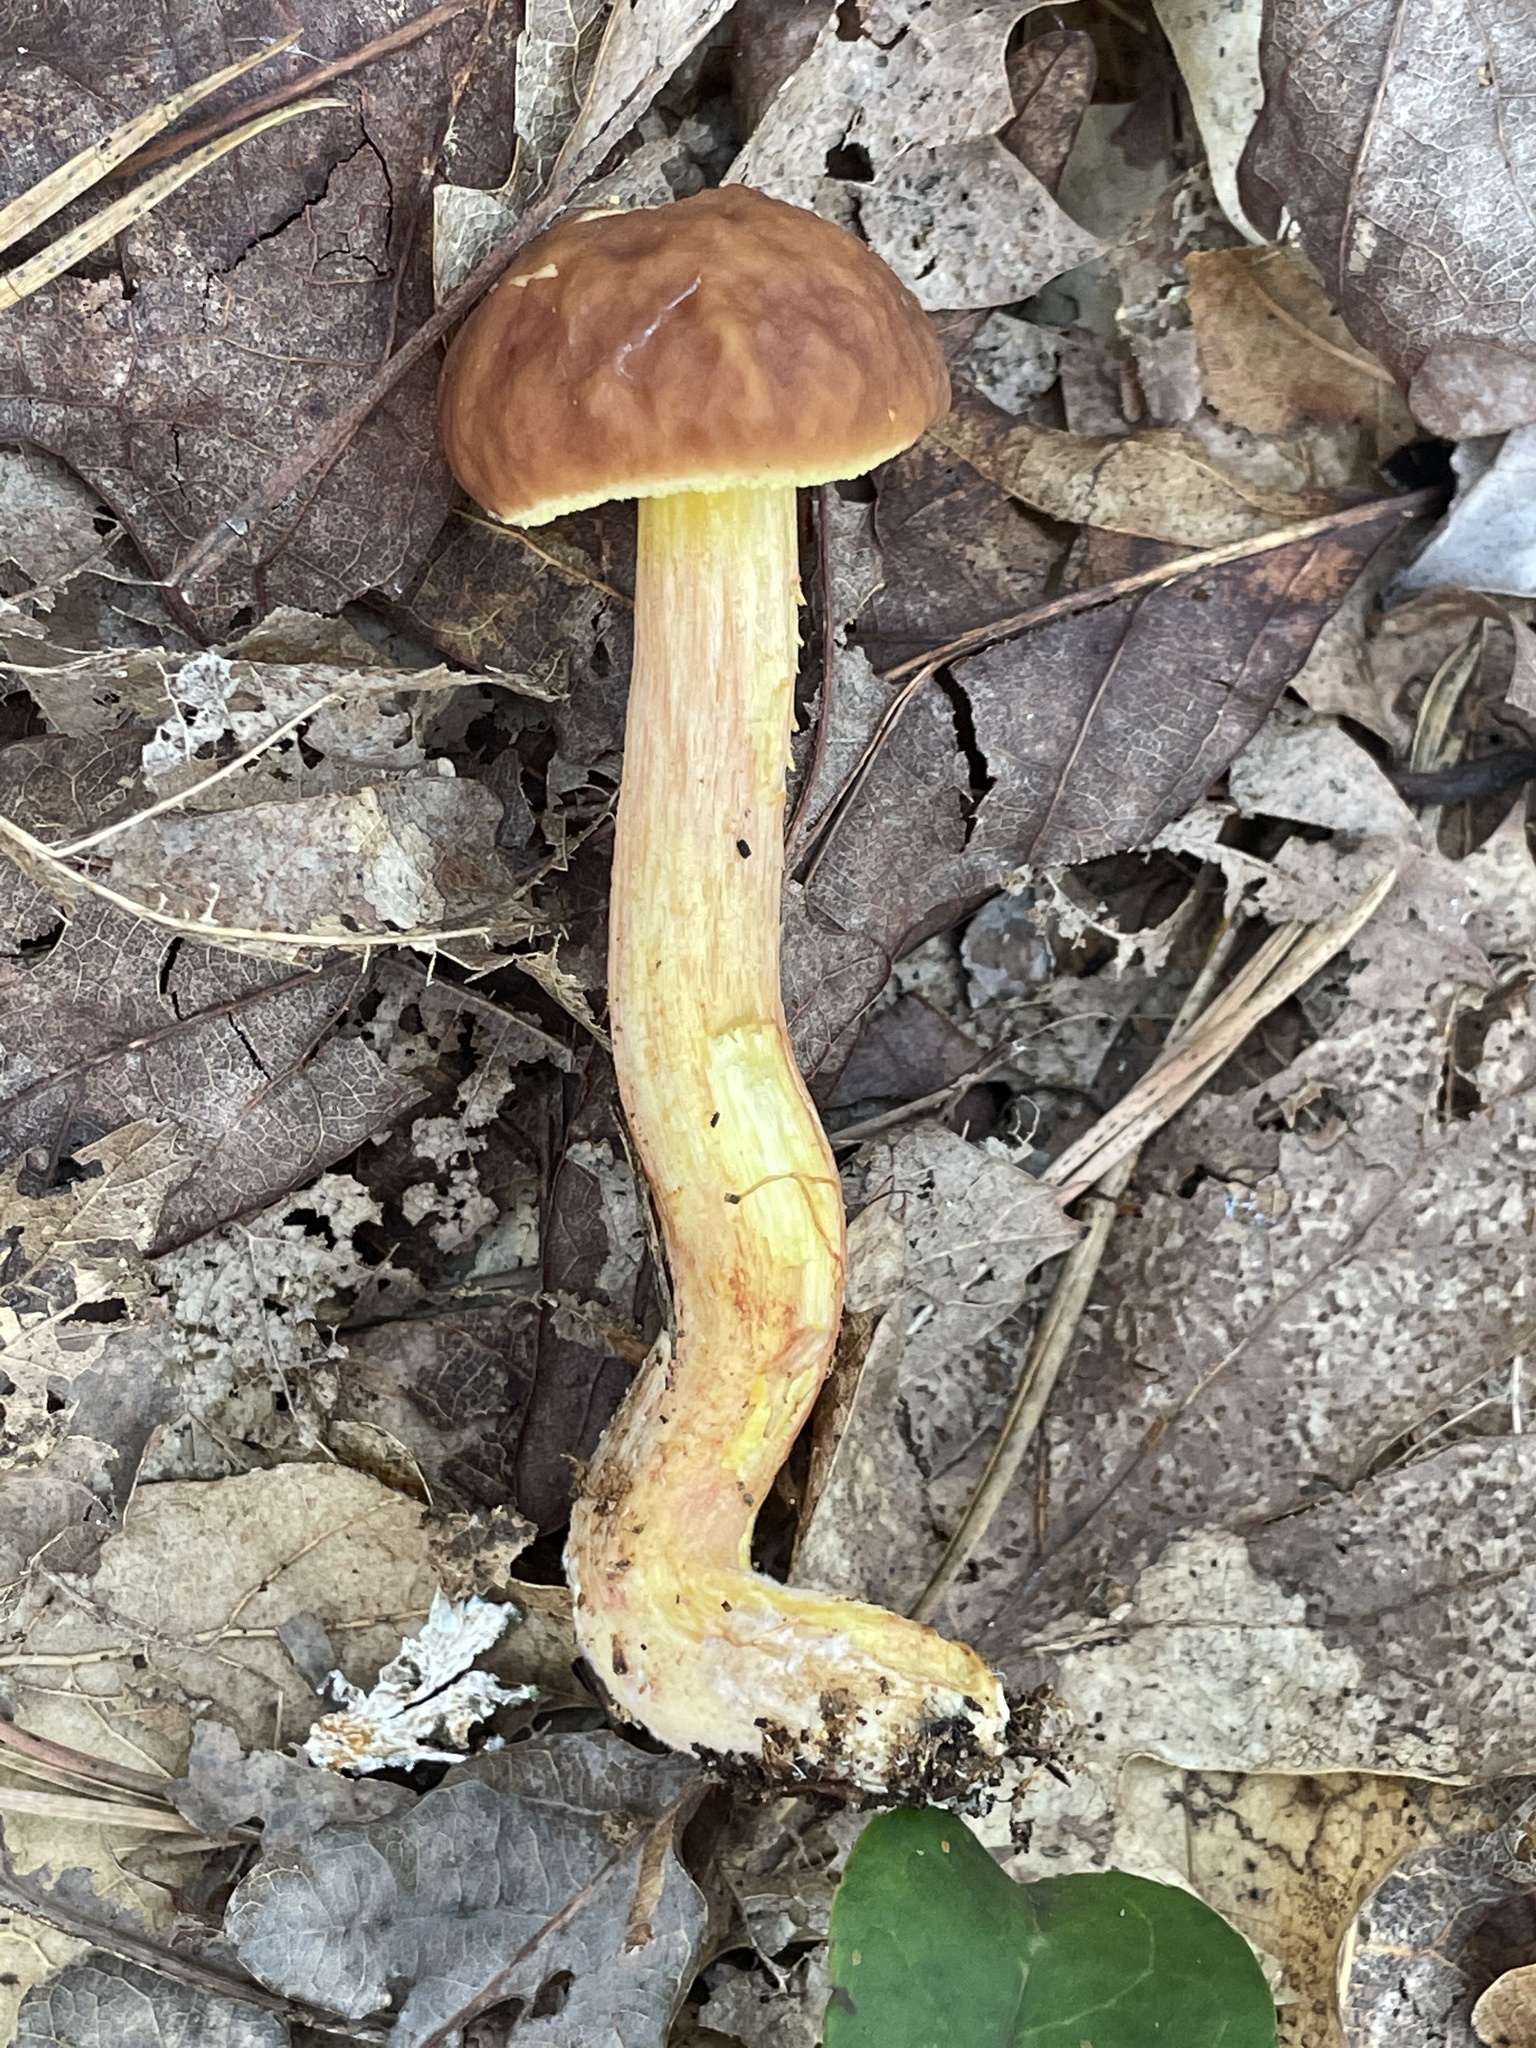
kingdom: Fungi
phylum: Basidiomycota
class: Agaricomycetes
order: Boletales
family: Boletaceae
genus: Hemileccinum
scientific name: Hemileccinum rubropunctum
